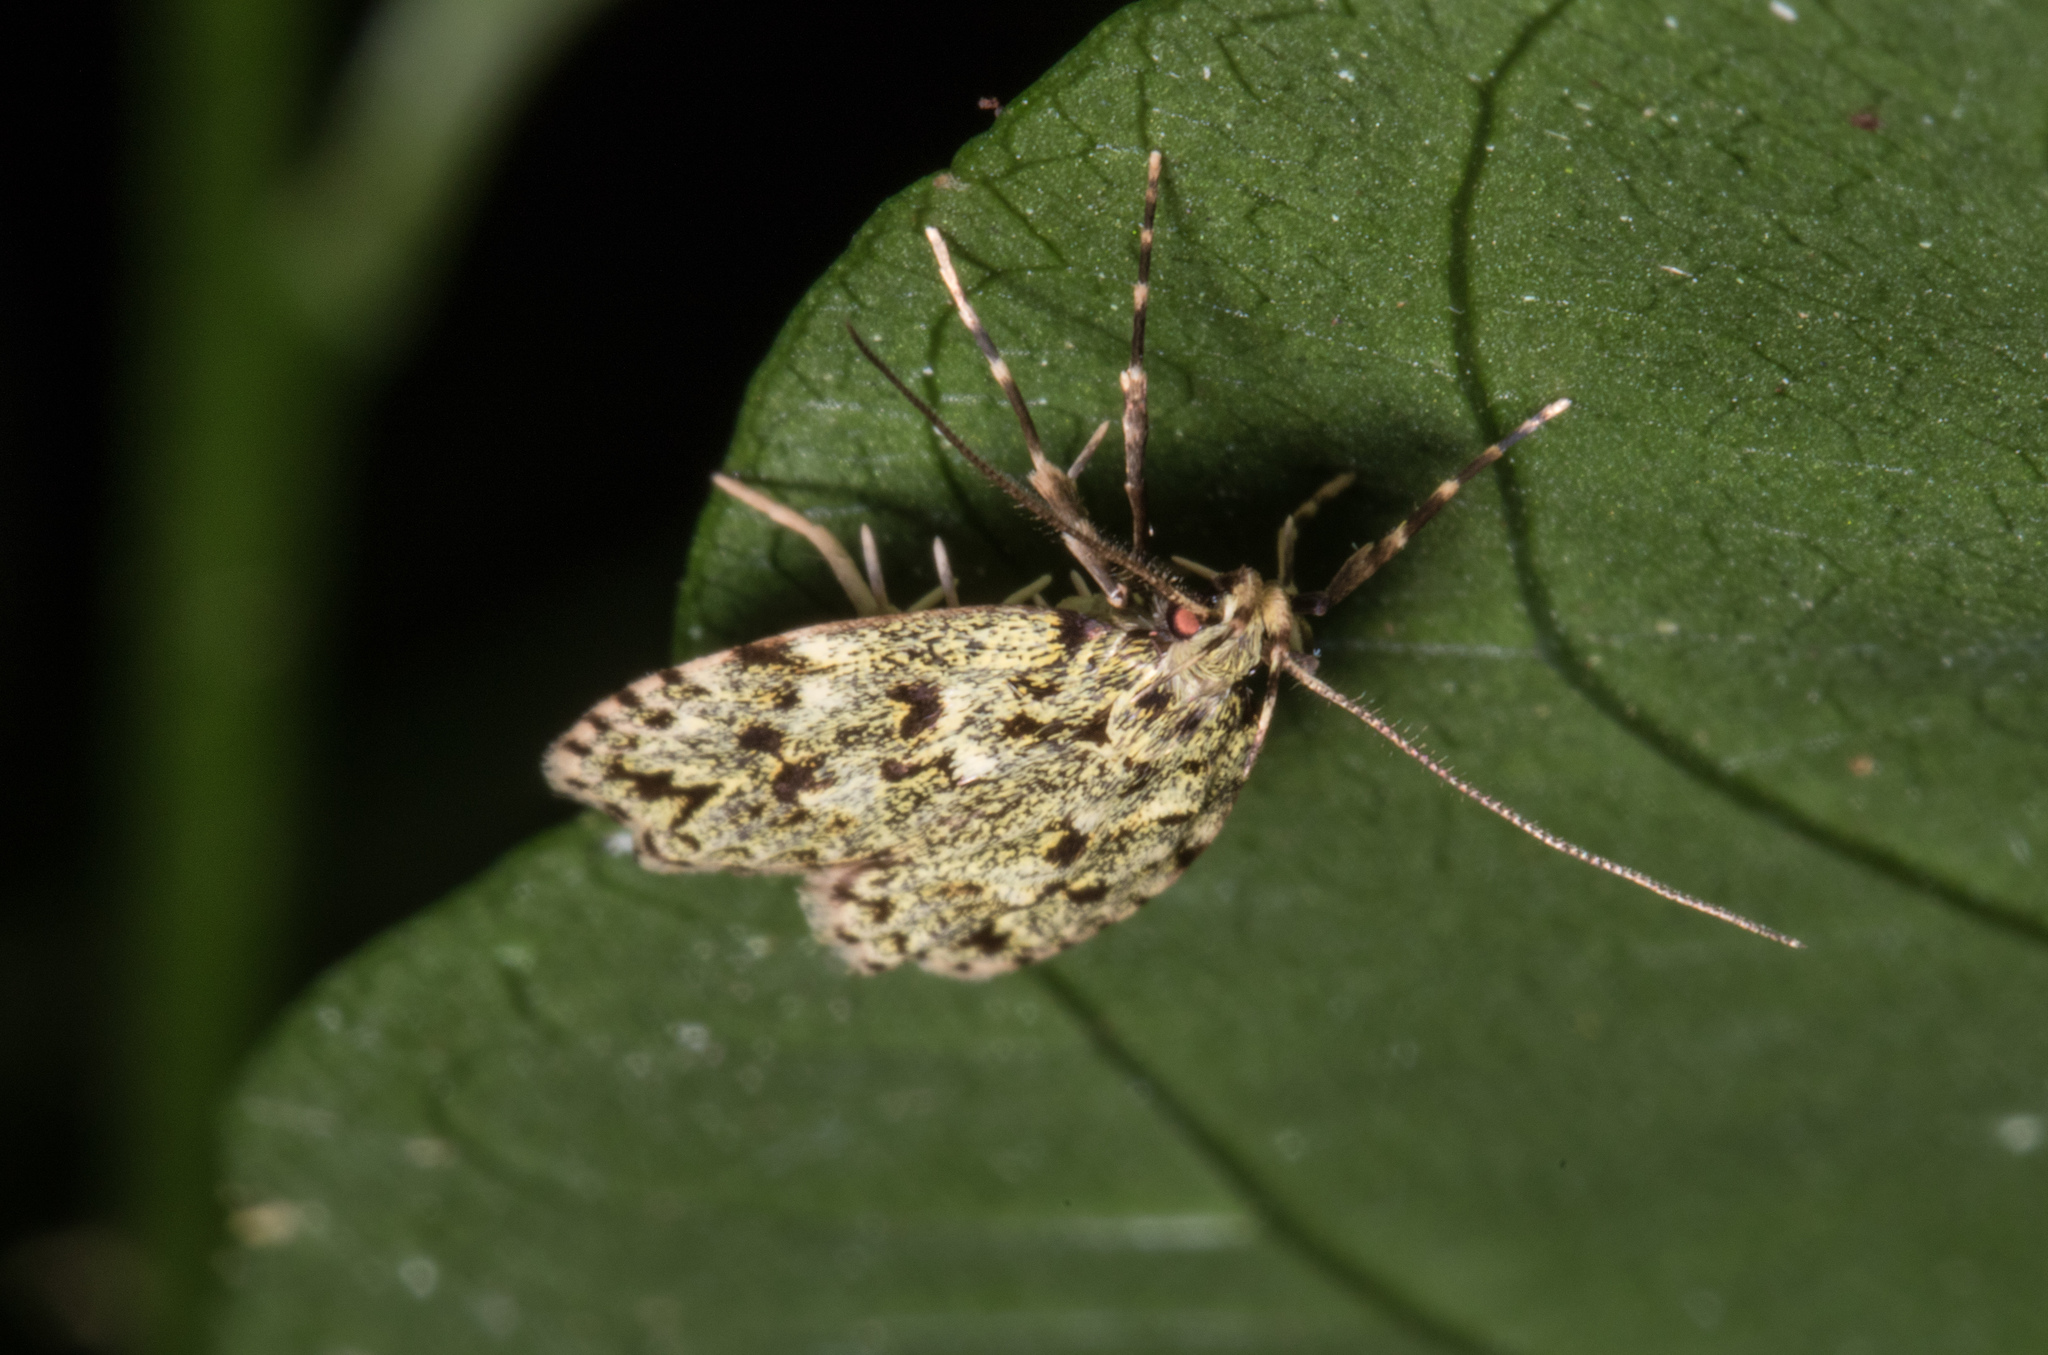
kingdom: Animalia
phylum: Arthropoda
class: Insecta
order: Lepidoptera
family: Oecophoridae
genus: Gymnobathra
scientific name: Gymnobathra bryaula
